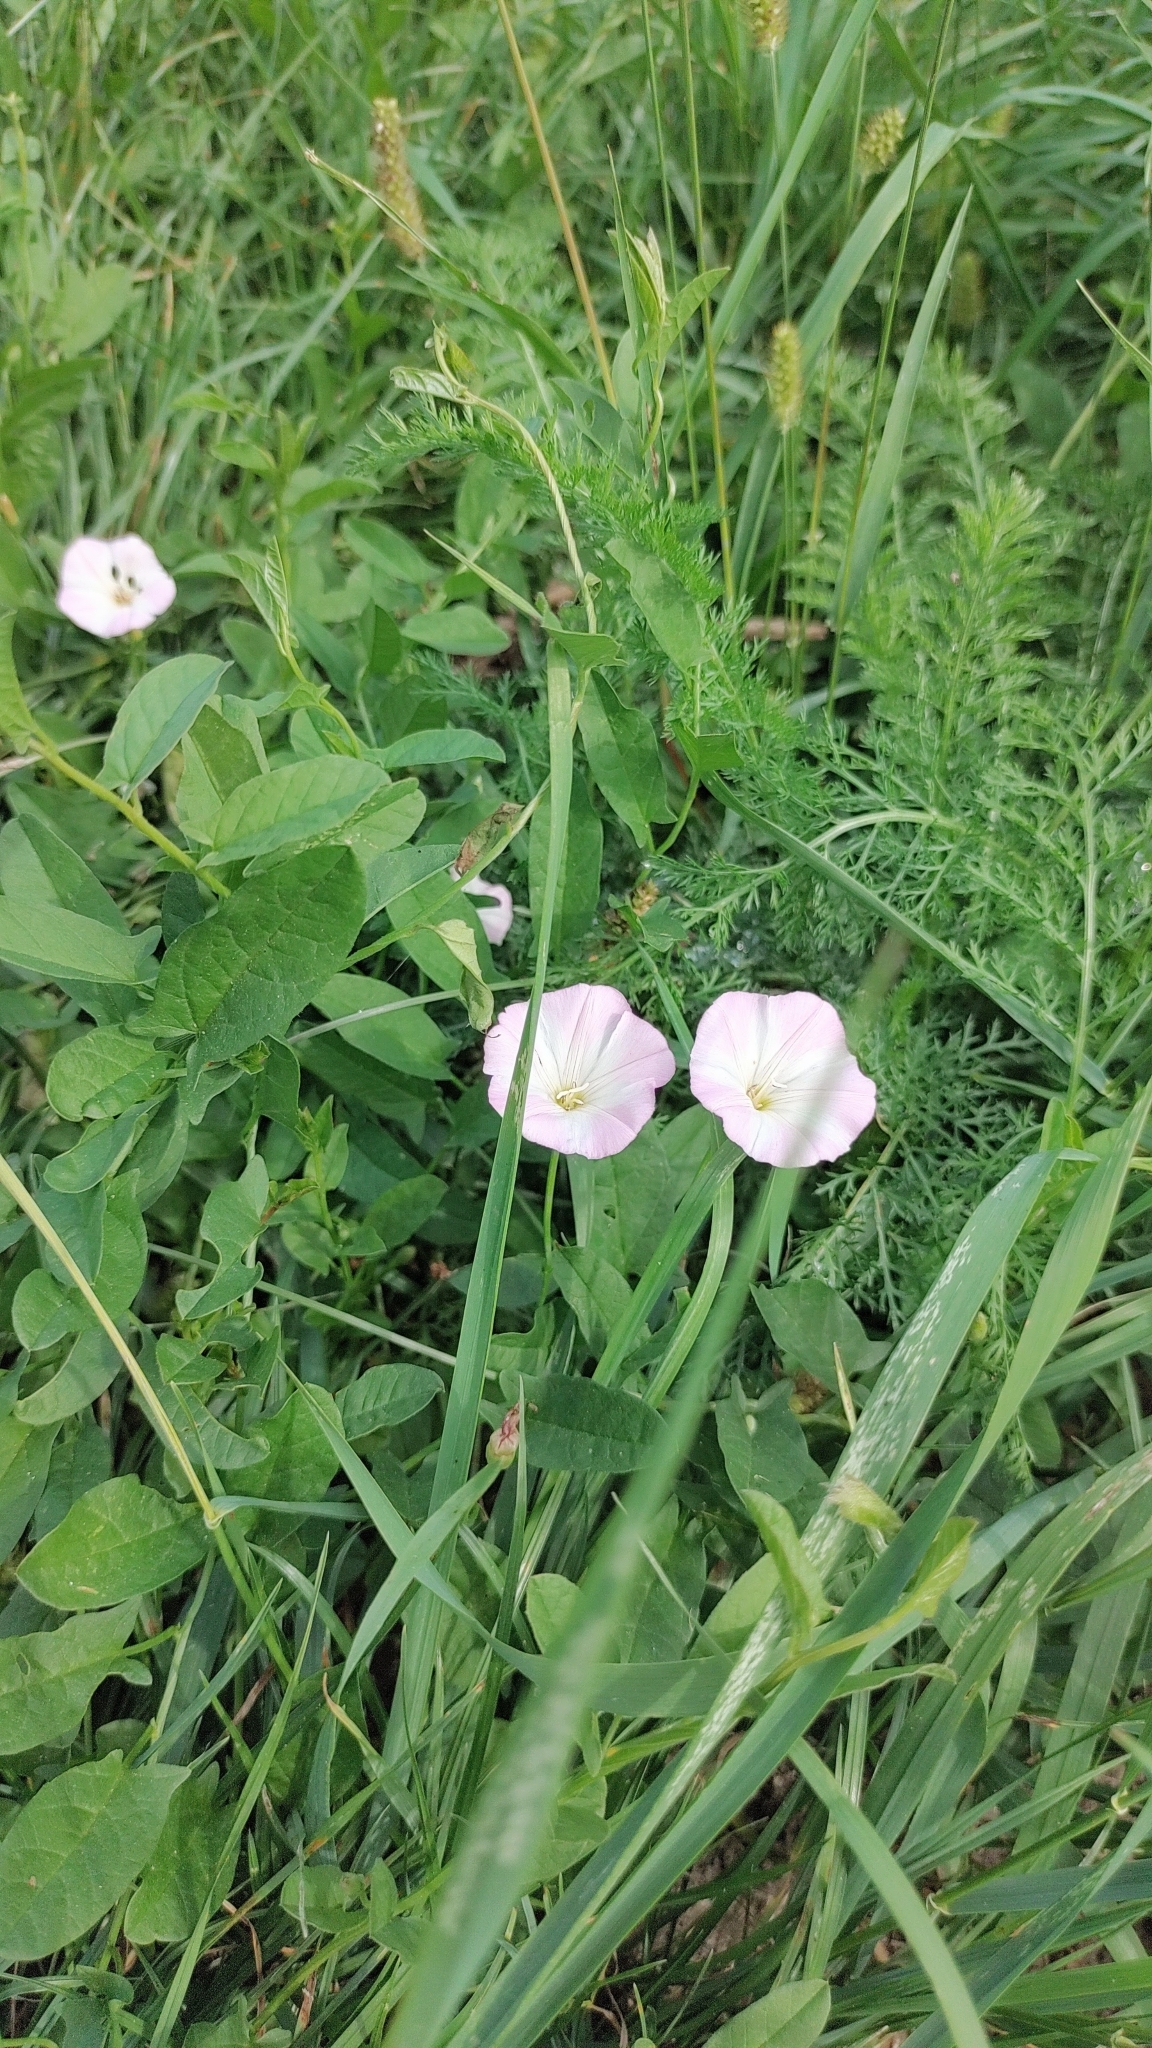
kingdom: Plantae
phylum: Tracheophyta
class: Magnoliopsida
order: Solanales
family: Convolvulaceae
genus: Convolvulus
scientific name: Convolvulus arvensis
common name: Field bindweed
